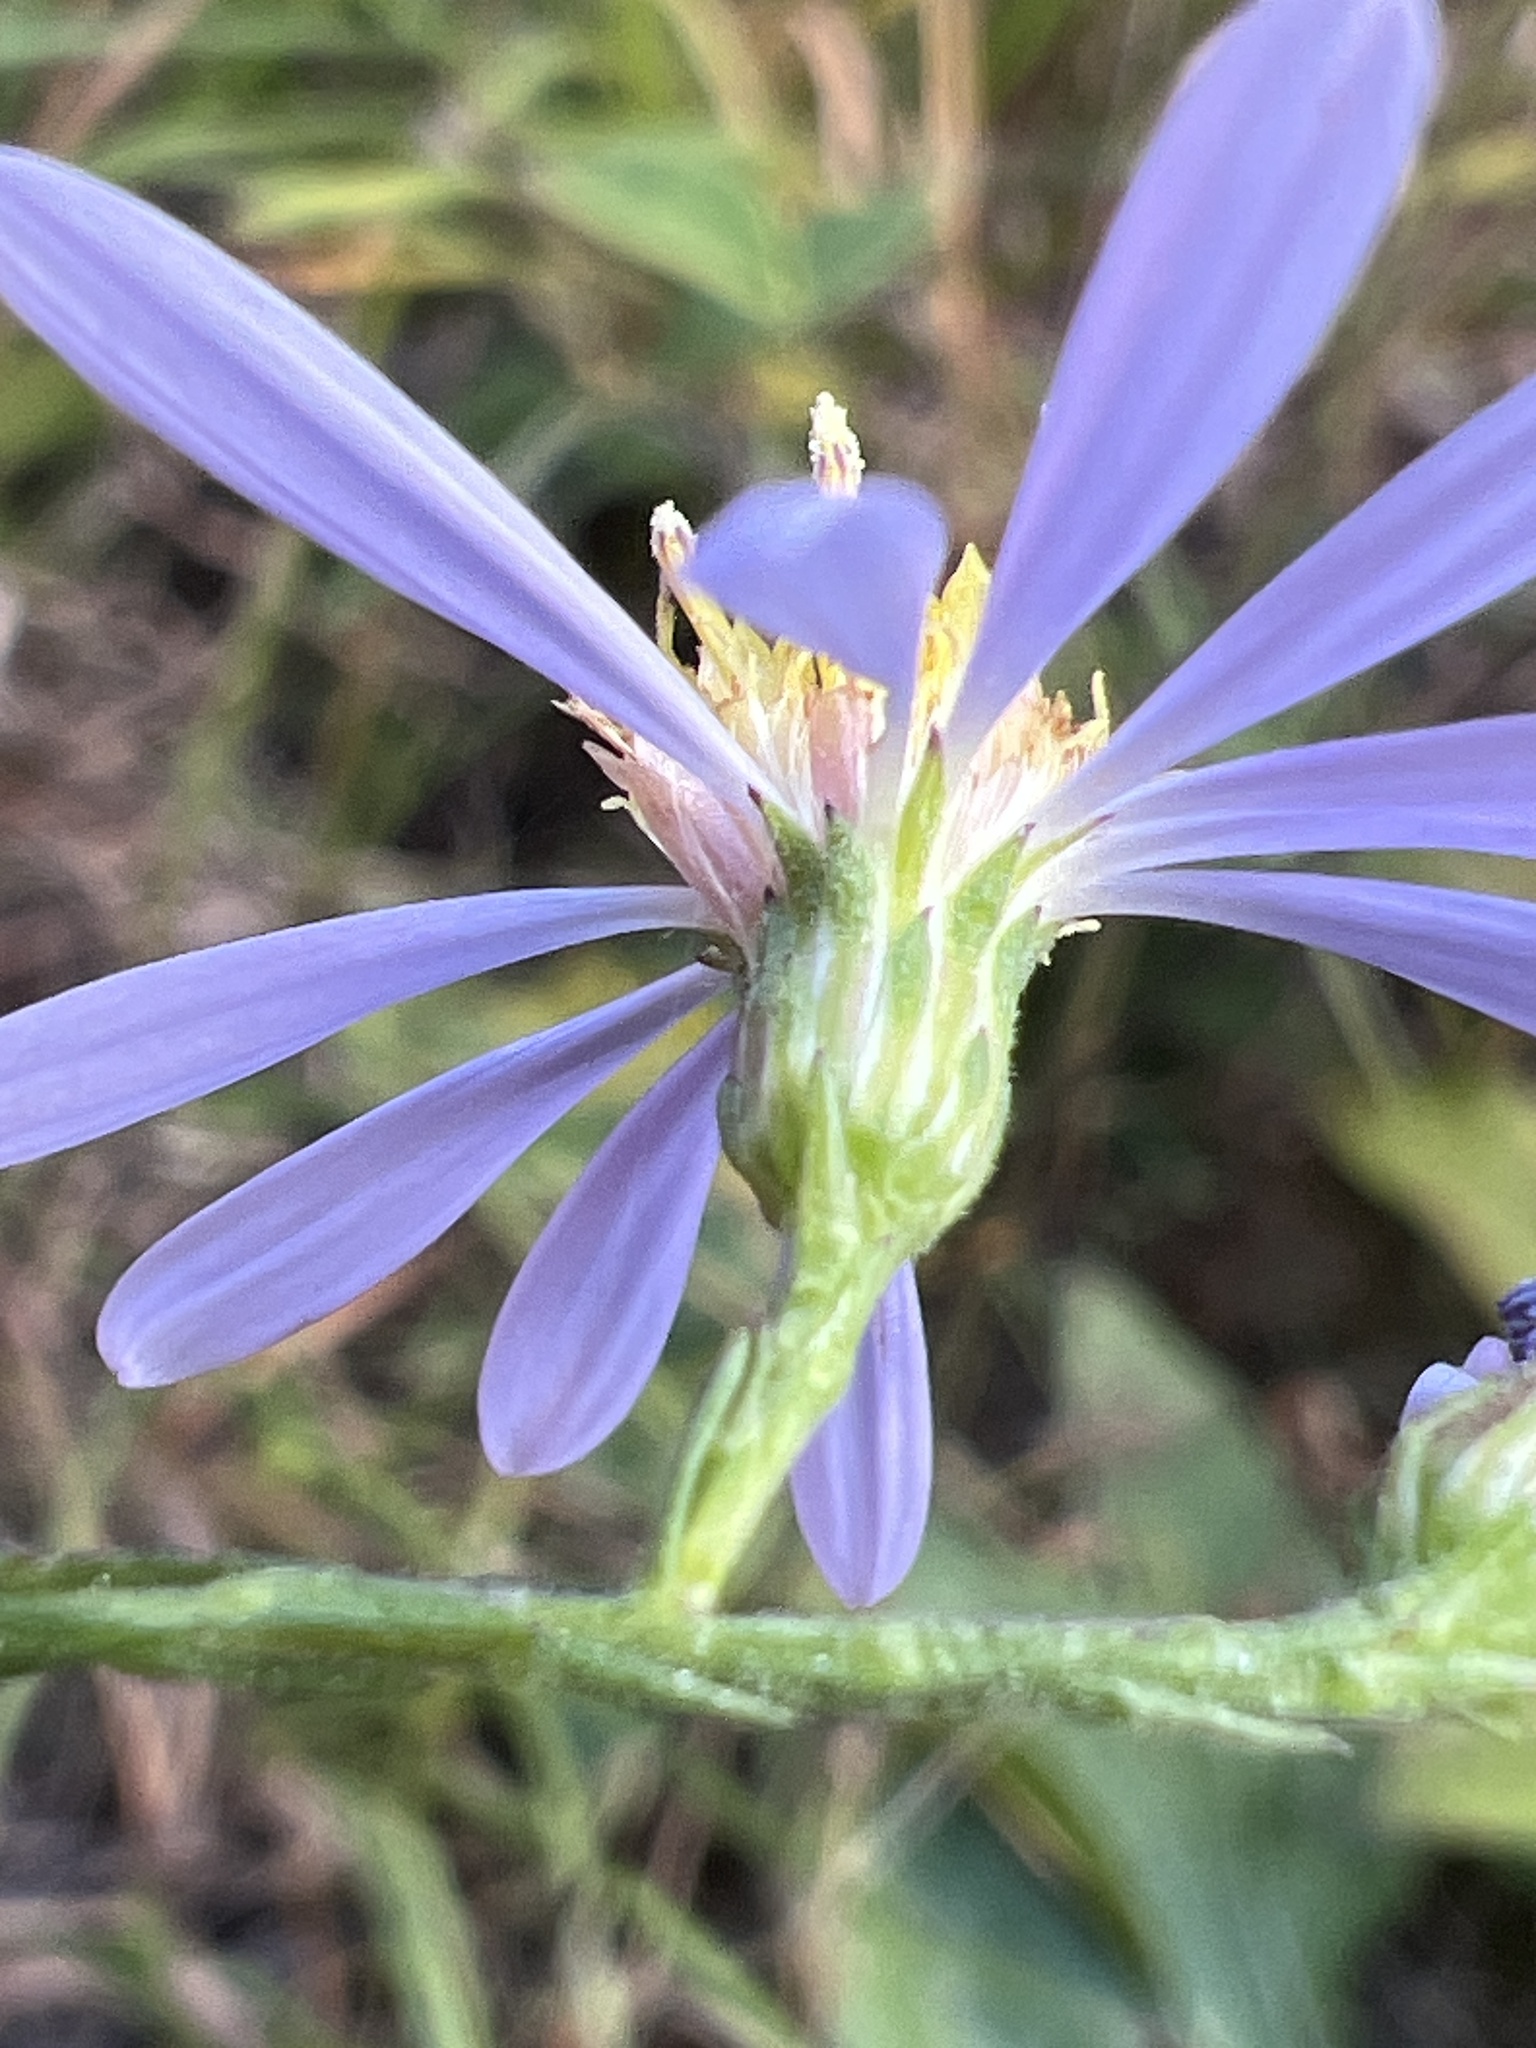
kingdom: Plantae
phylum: Tracheophyta
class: Magnoliopsida
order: Asterales
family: Asteraceae
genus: Symphyotrichum
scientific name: Symphyotrichum undulatum
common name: Clasping heart-leaf aster
